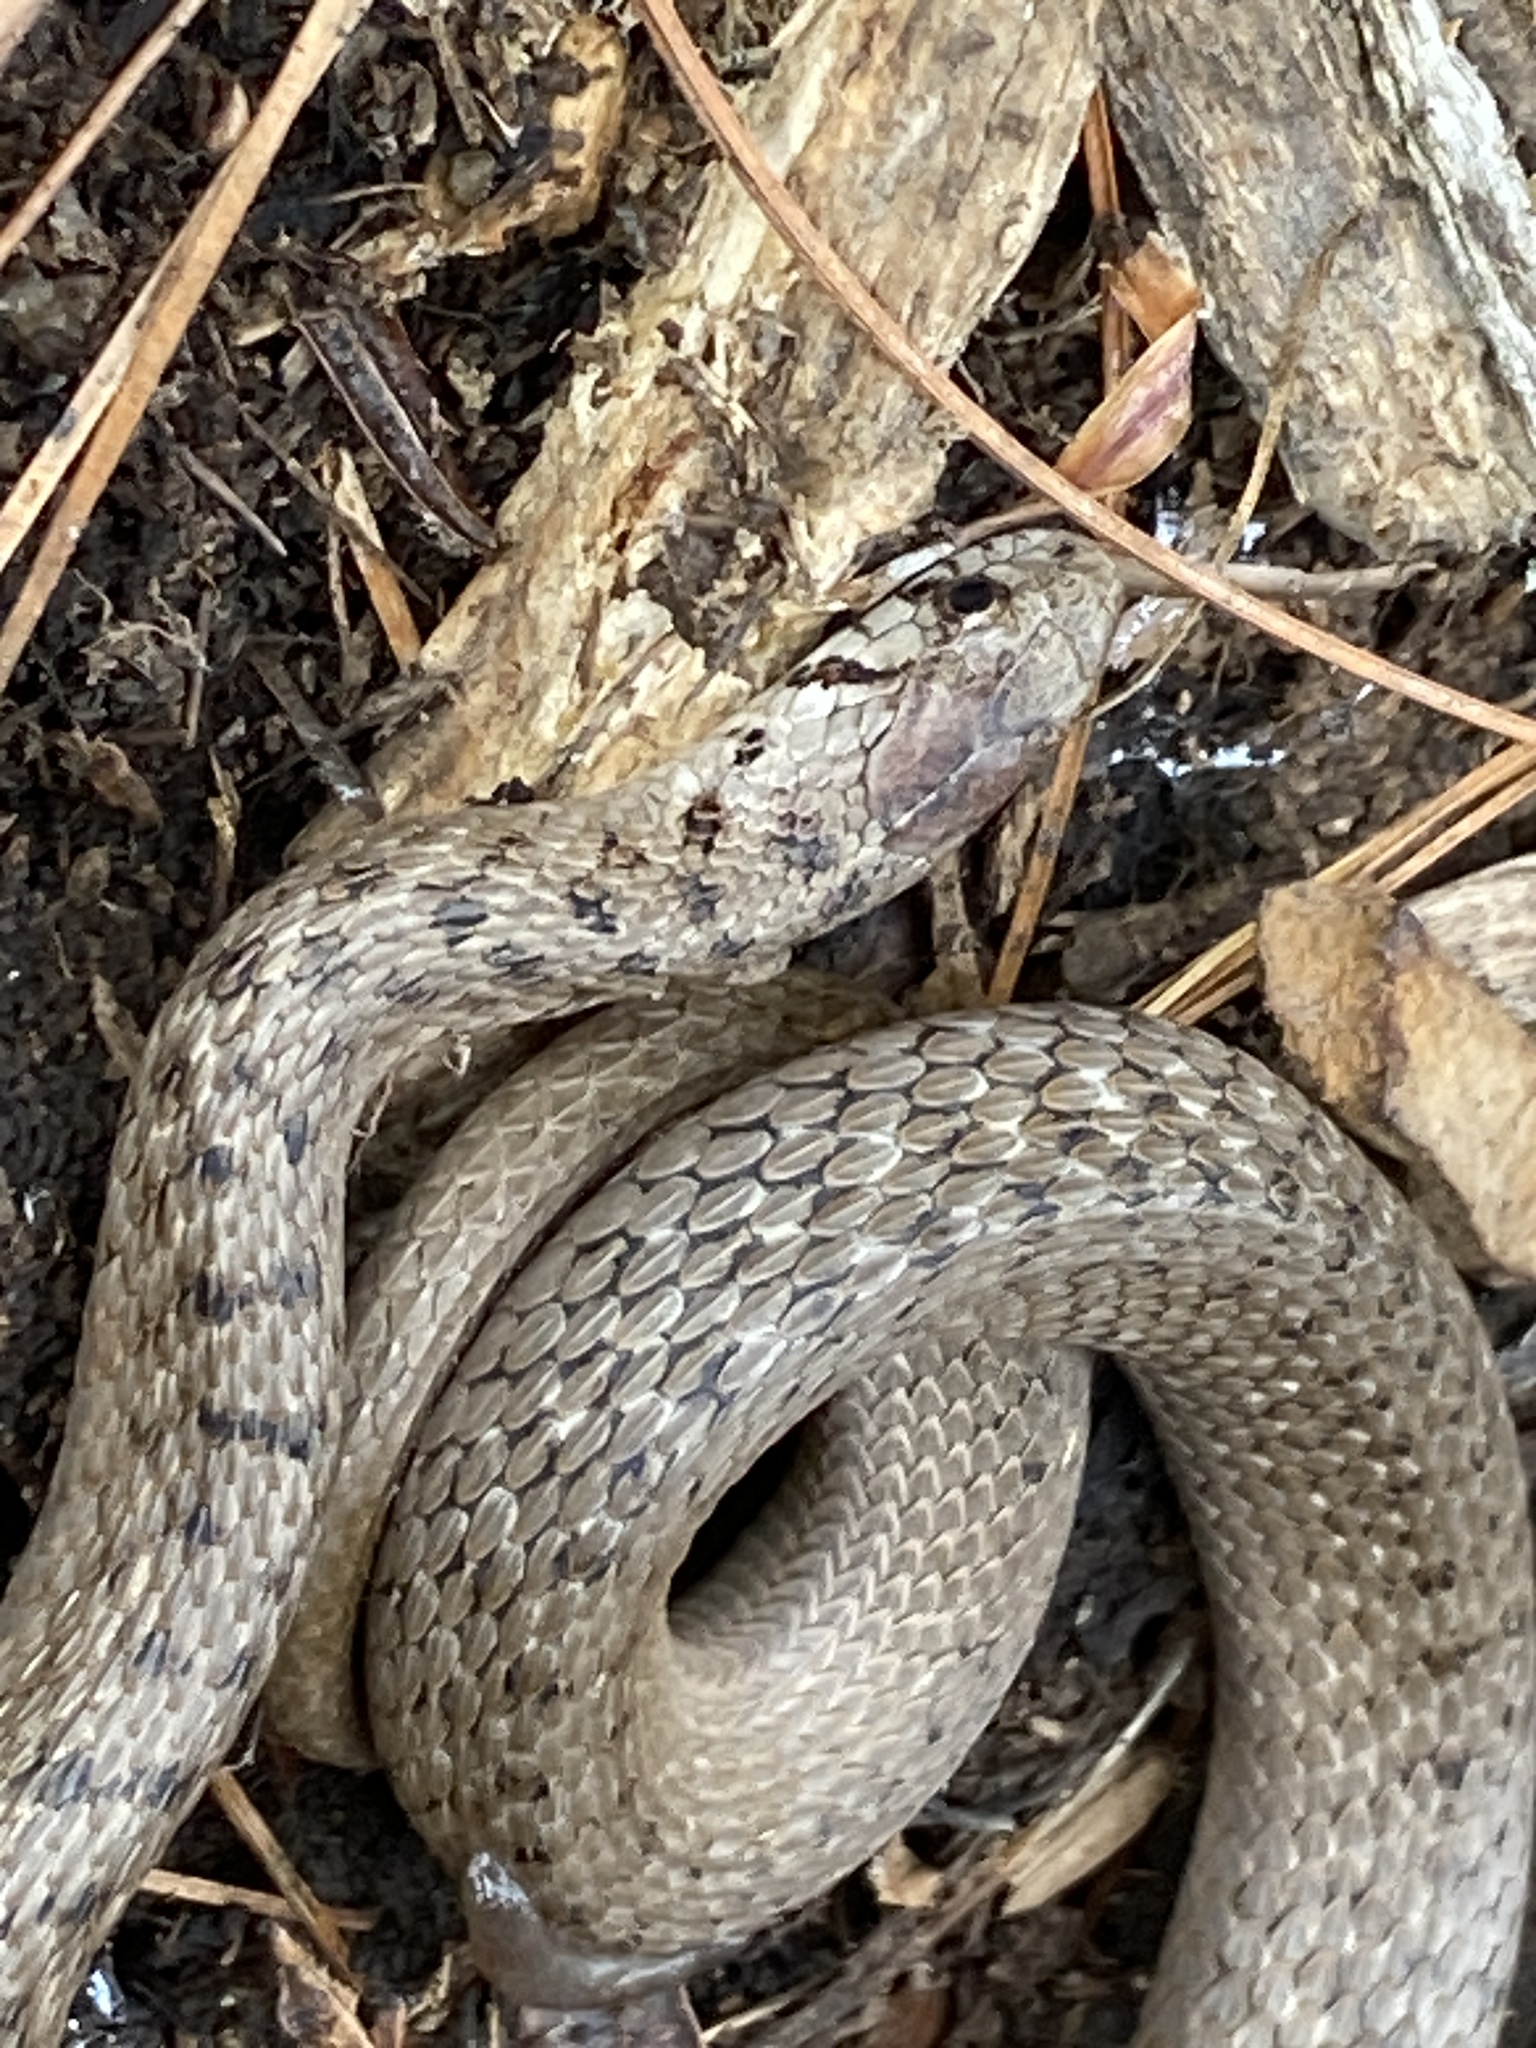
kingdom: Animalia
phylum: Chordata
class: Squamata
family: Colubridae
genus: Storeria
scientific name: Storeria dekayi
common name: (dekay’s) brown snake
